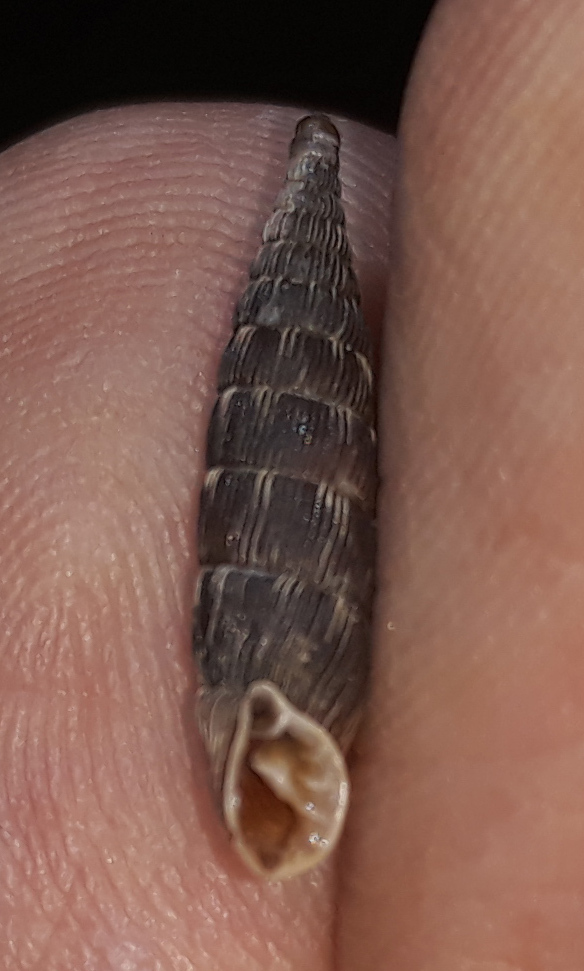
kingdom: Animalia
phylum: Mollusca
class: Gastropoda
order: Stylommatophora
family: Clausiliidae
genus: Laciniaria
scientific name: Laciniaria plicata
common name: Single-lipped door snail
